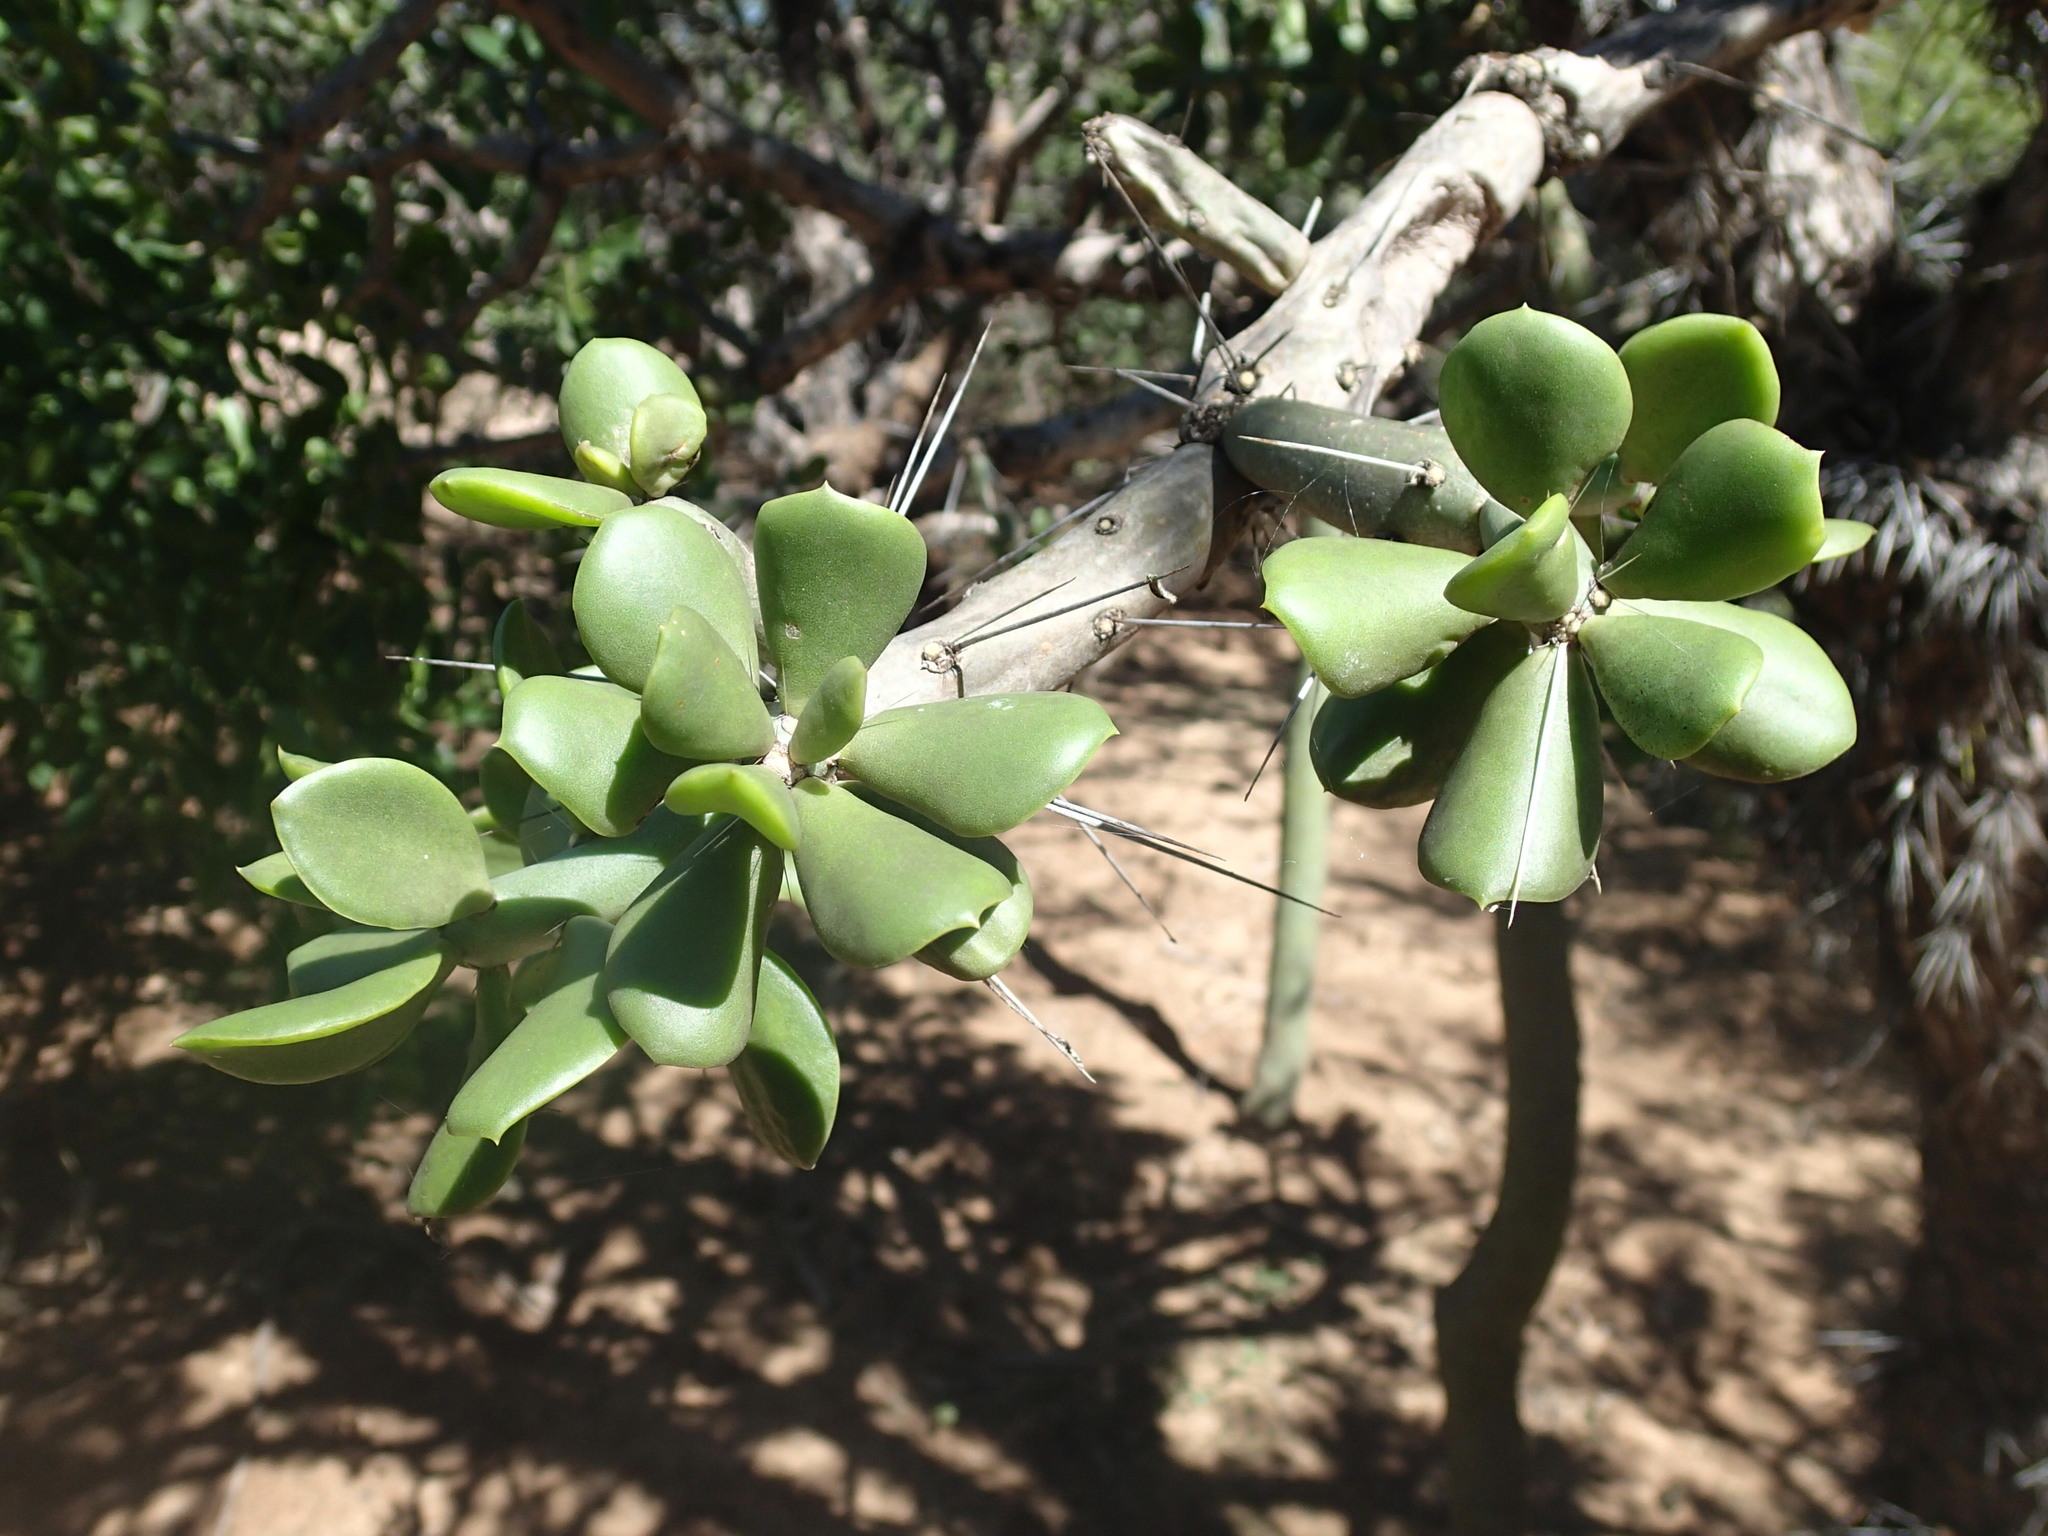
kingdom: Plantae
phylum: Tracheophyta
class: Magnoliopsida
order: Caryophyllales
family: Cactaceae
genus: Quiabentia
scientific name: Quiabentia verticillata
